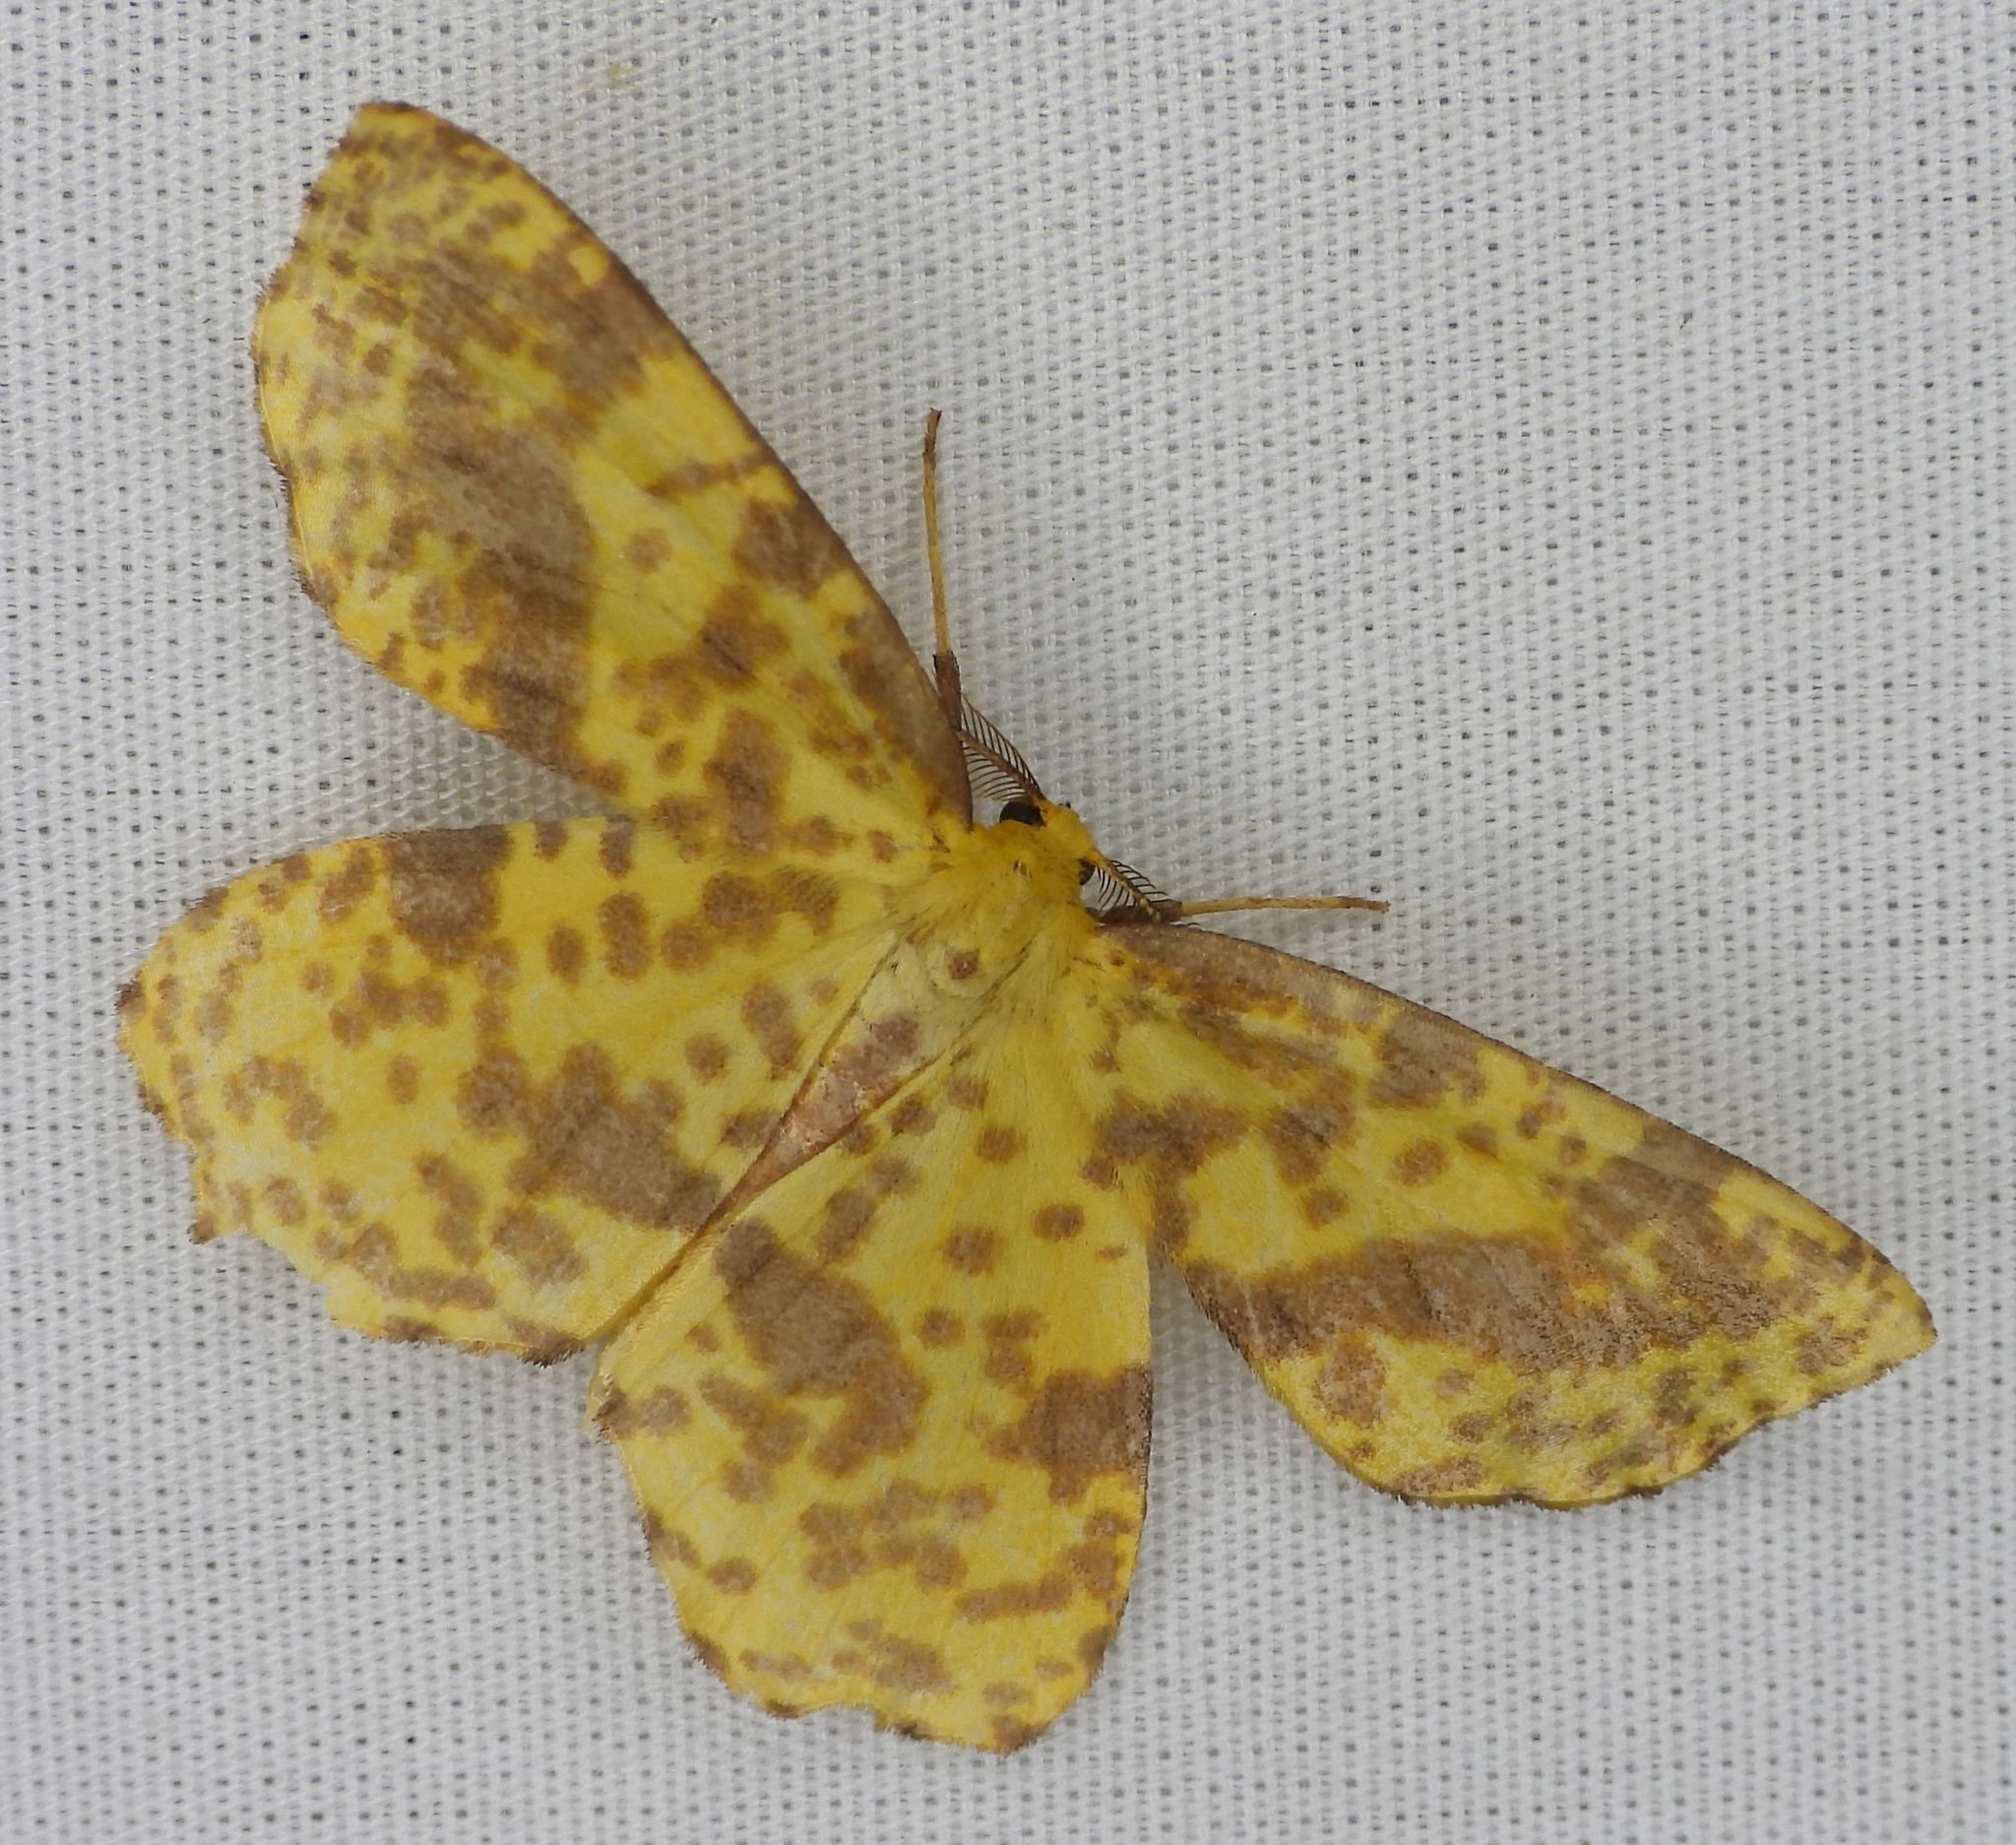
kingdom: Animalia
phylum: Arthropoda
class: Insecta
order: Lepidoptera
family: Geometridae
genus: Xanthotype
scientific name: Xanthotype
